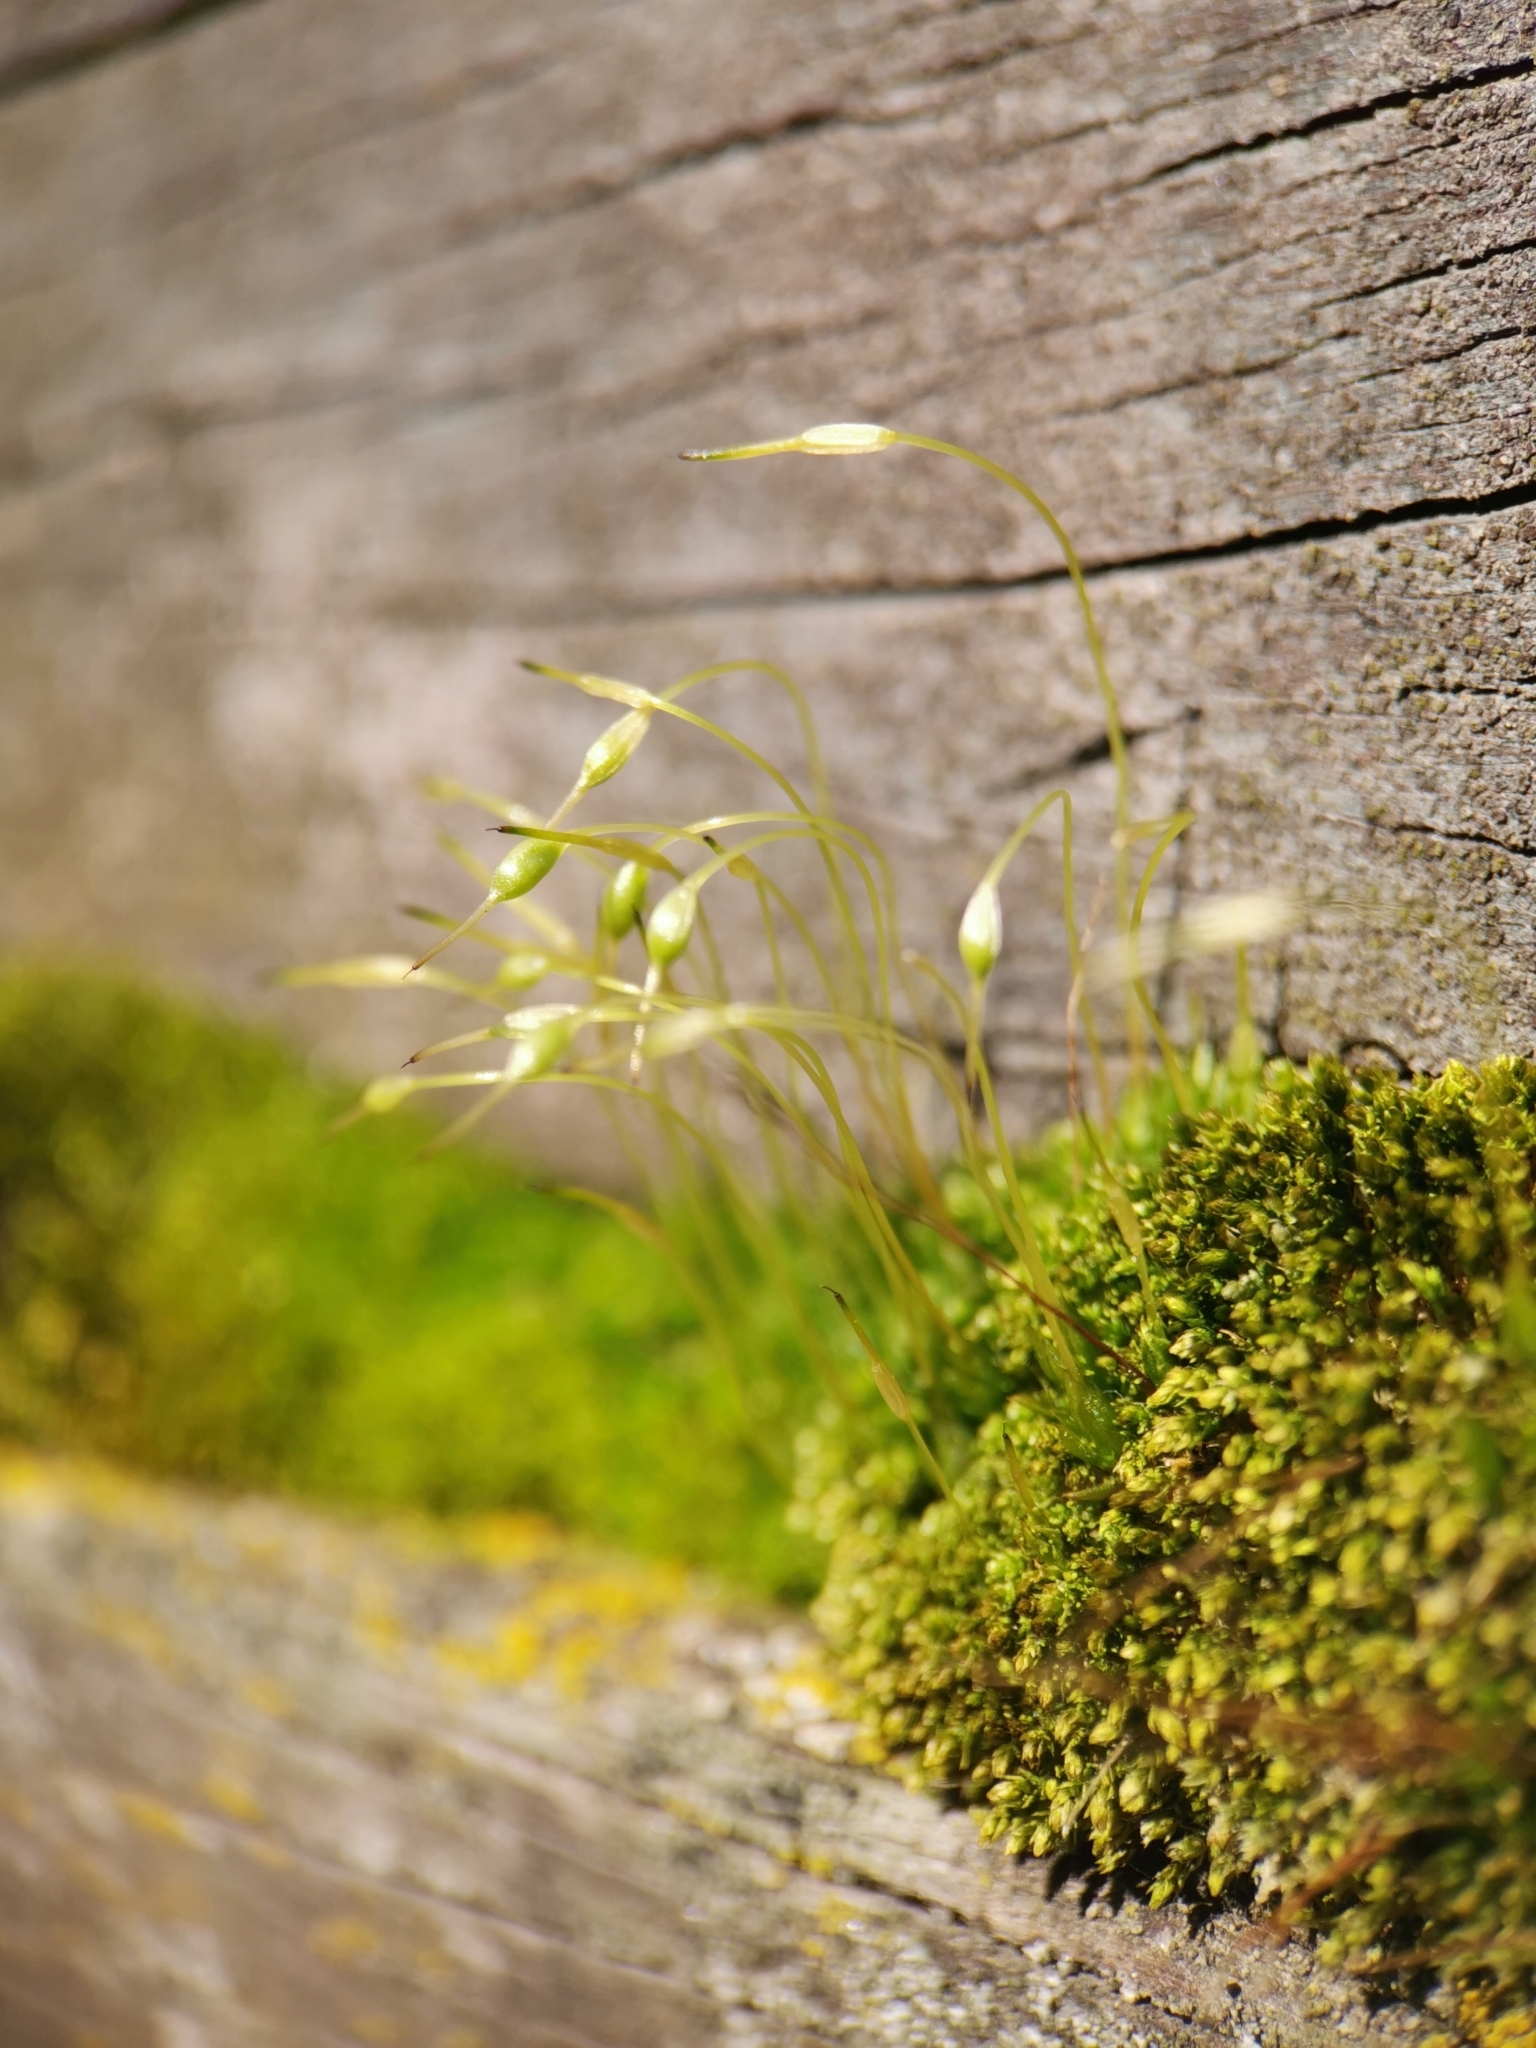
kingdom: Plantae
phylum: Bryophyta
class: Bryopsida
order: Funariales
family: Funariaceae
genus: Funaria
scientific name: Funaria hygrometrica
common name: Common cord moss
